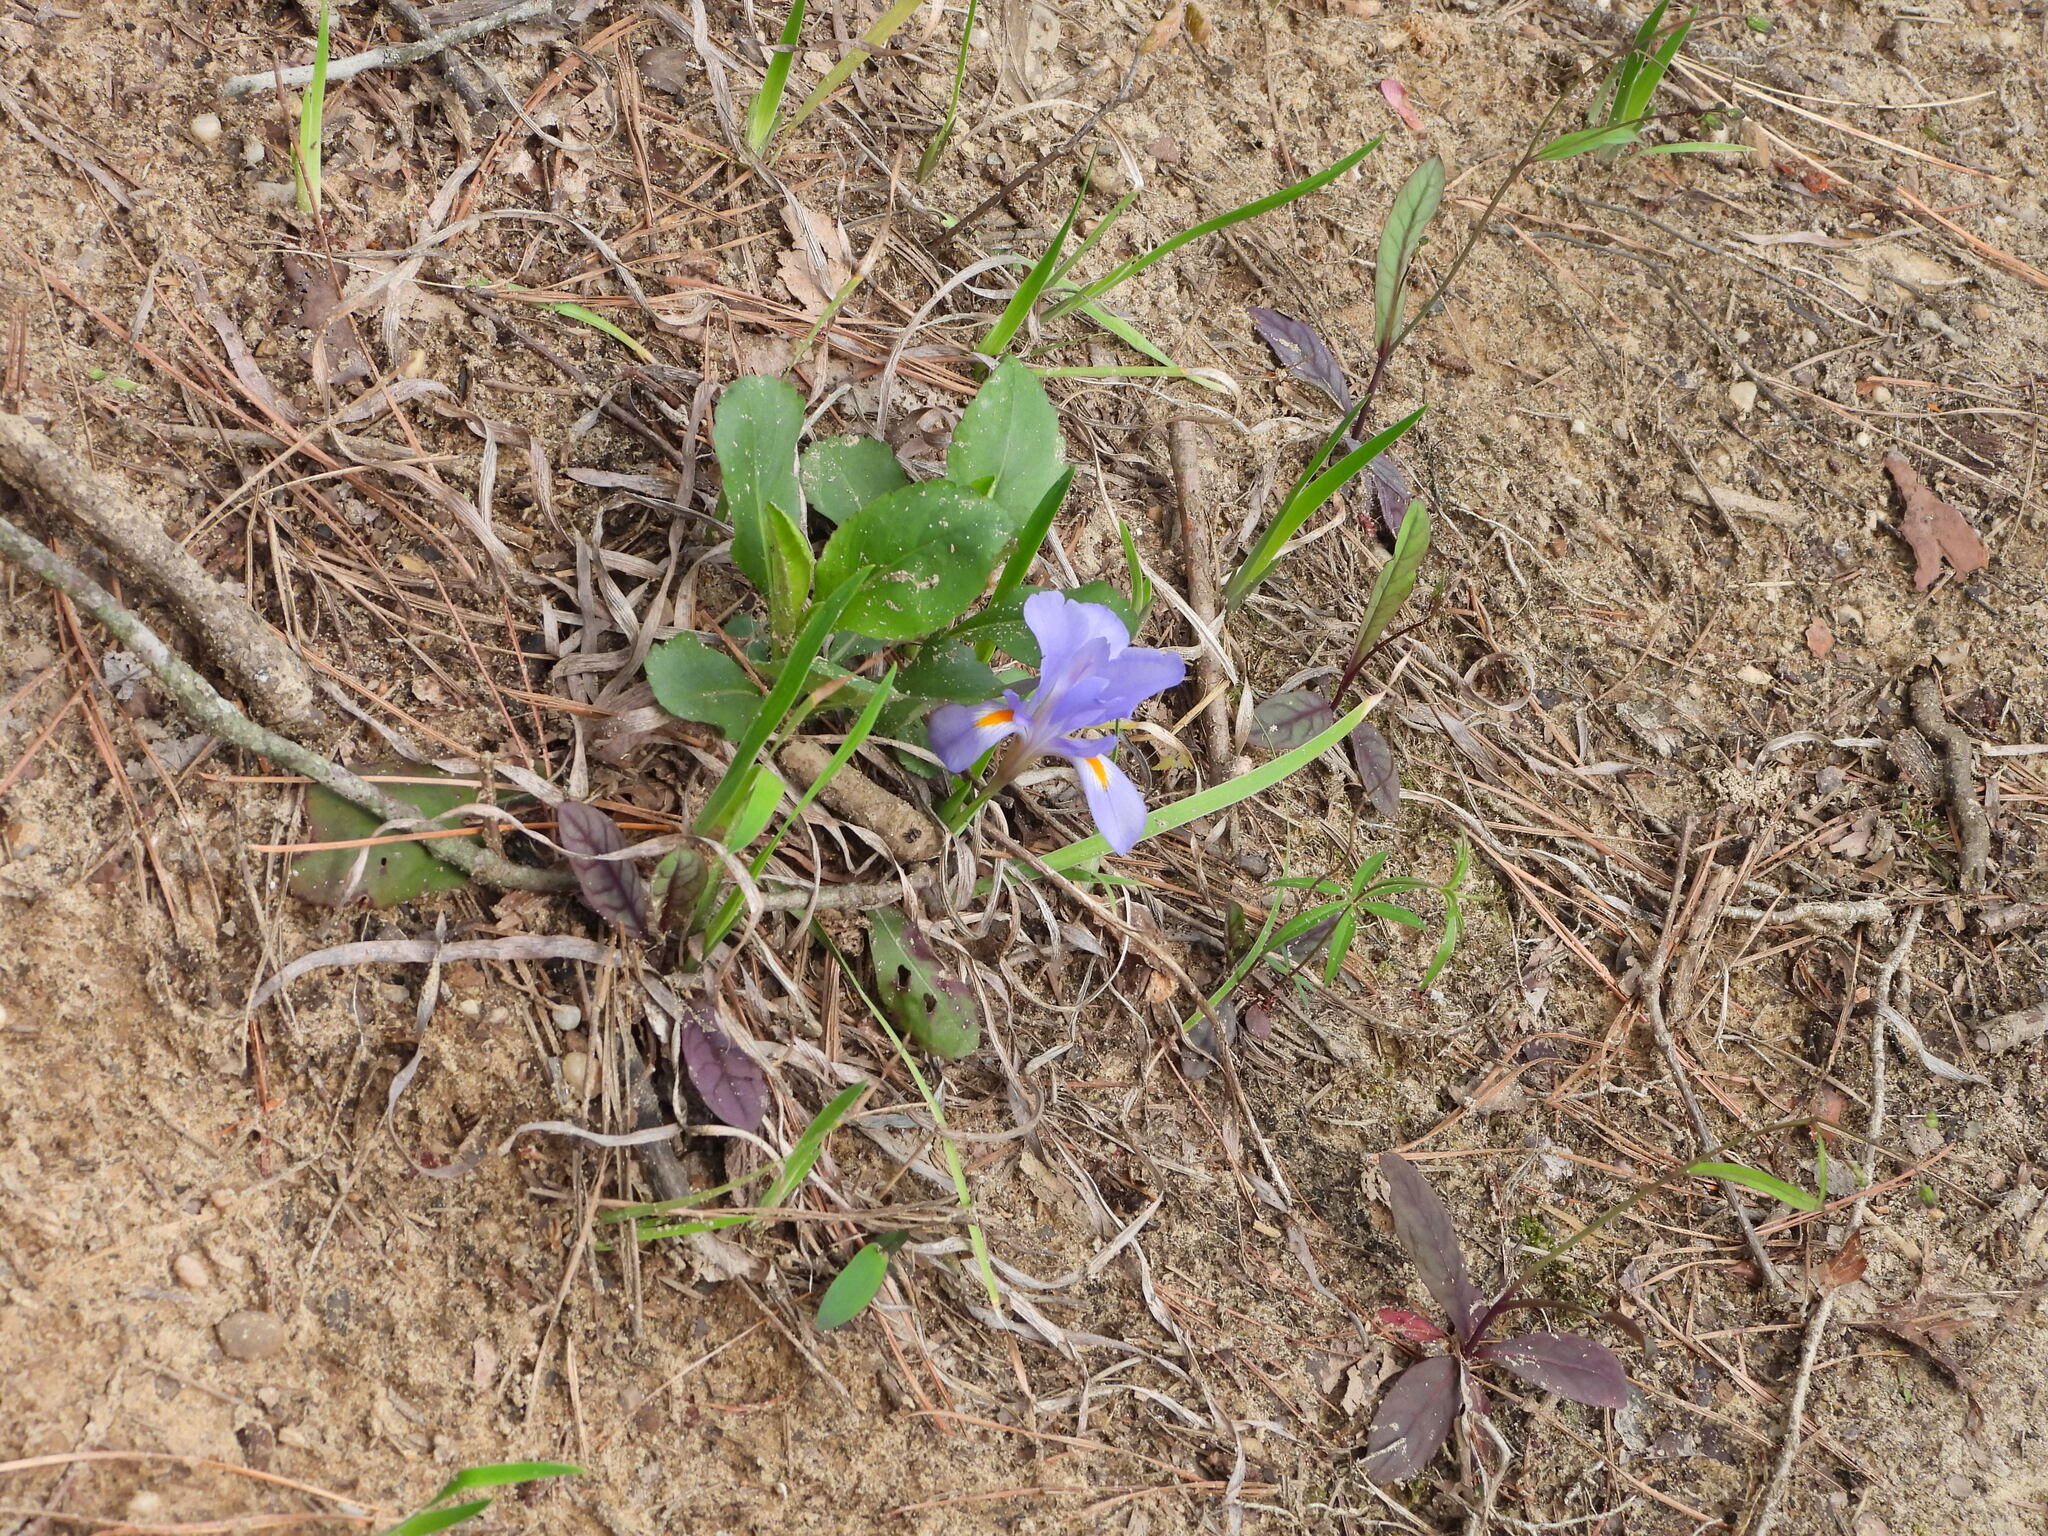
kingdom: Plantae
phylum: Tracheophyta
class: Liliopsida
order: Asparagales
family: Iridaceae
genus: Iris
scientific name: Iris verna
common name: Dwarf iris
